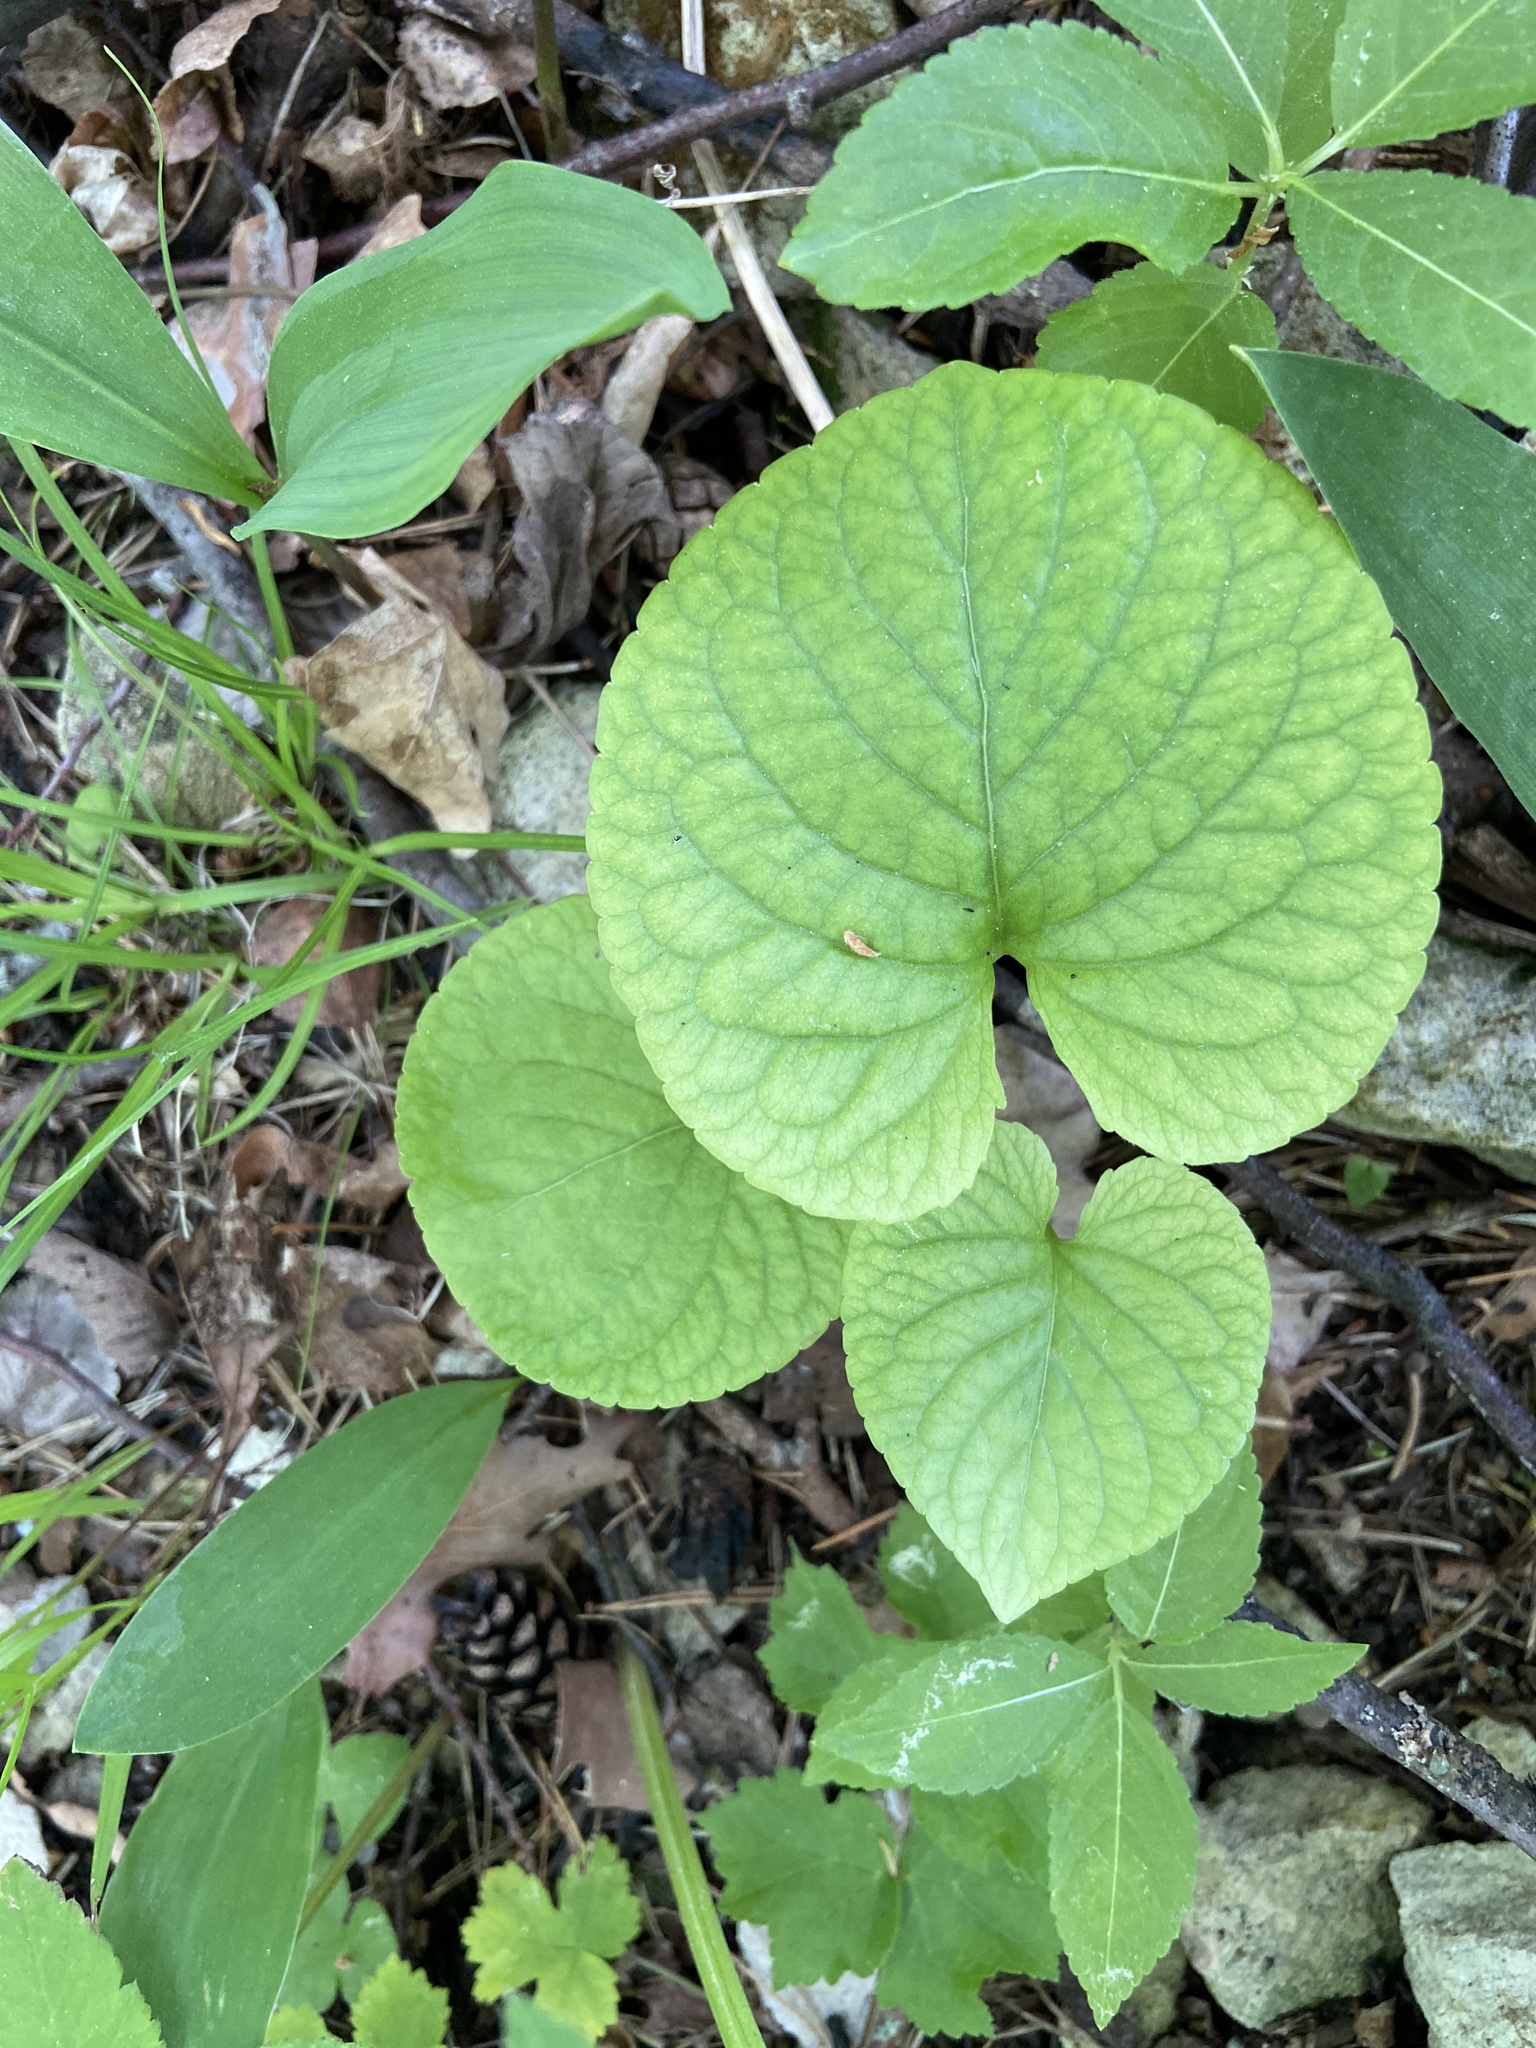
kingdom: Plantae
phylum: Tracheophyta
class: Magnoliopsida
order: Malpighiales
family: Violaceae
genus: Viola
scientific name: Viola mirabilis
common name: Wonder violet
